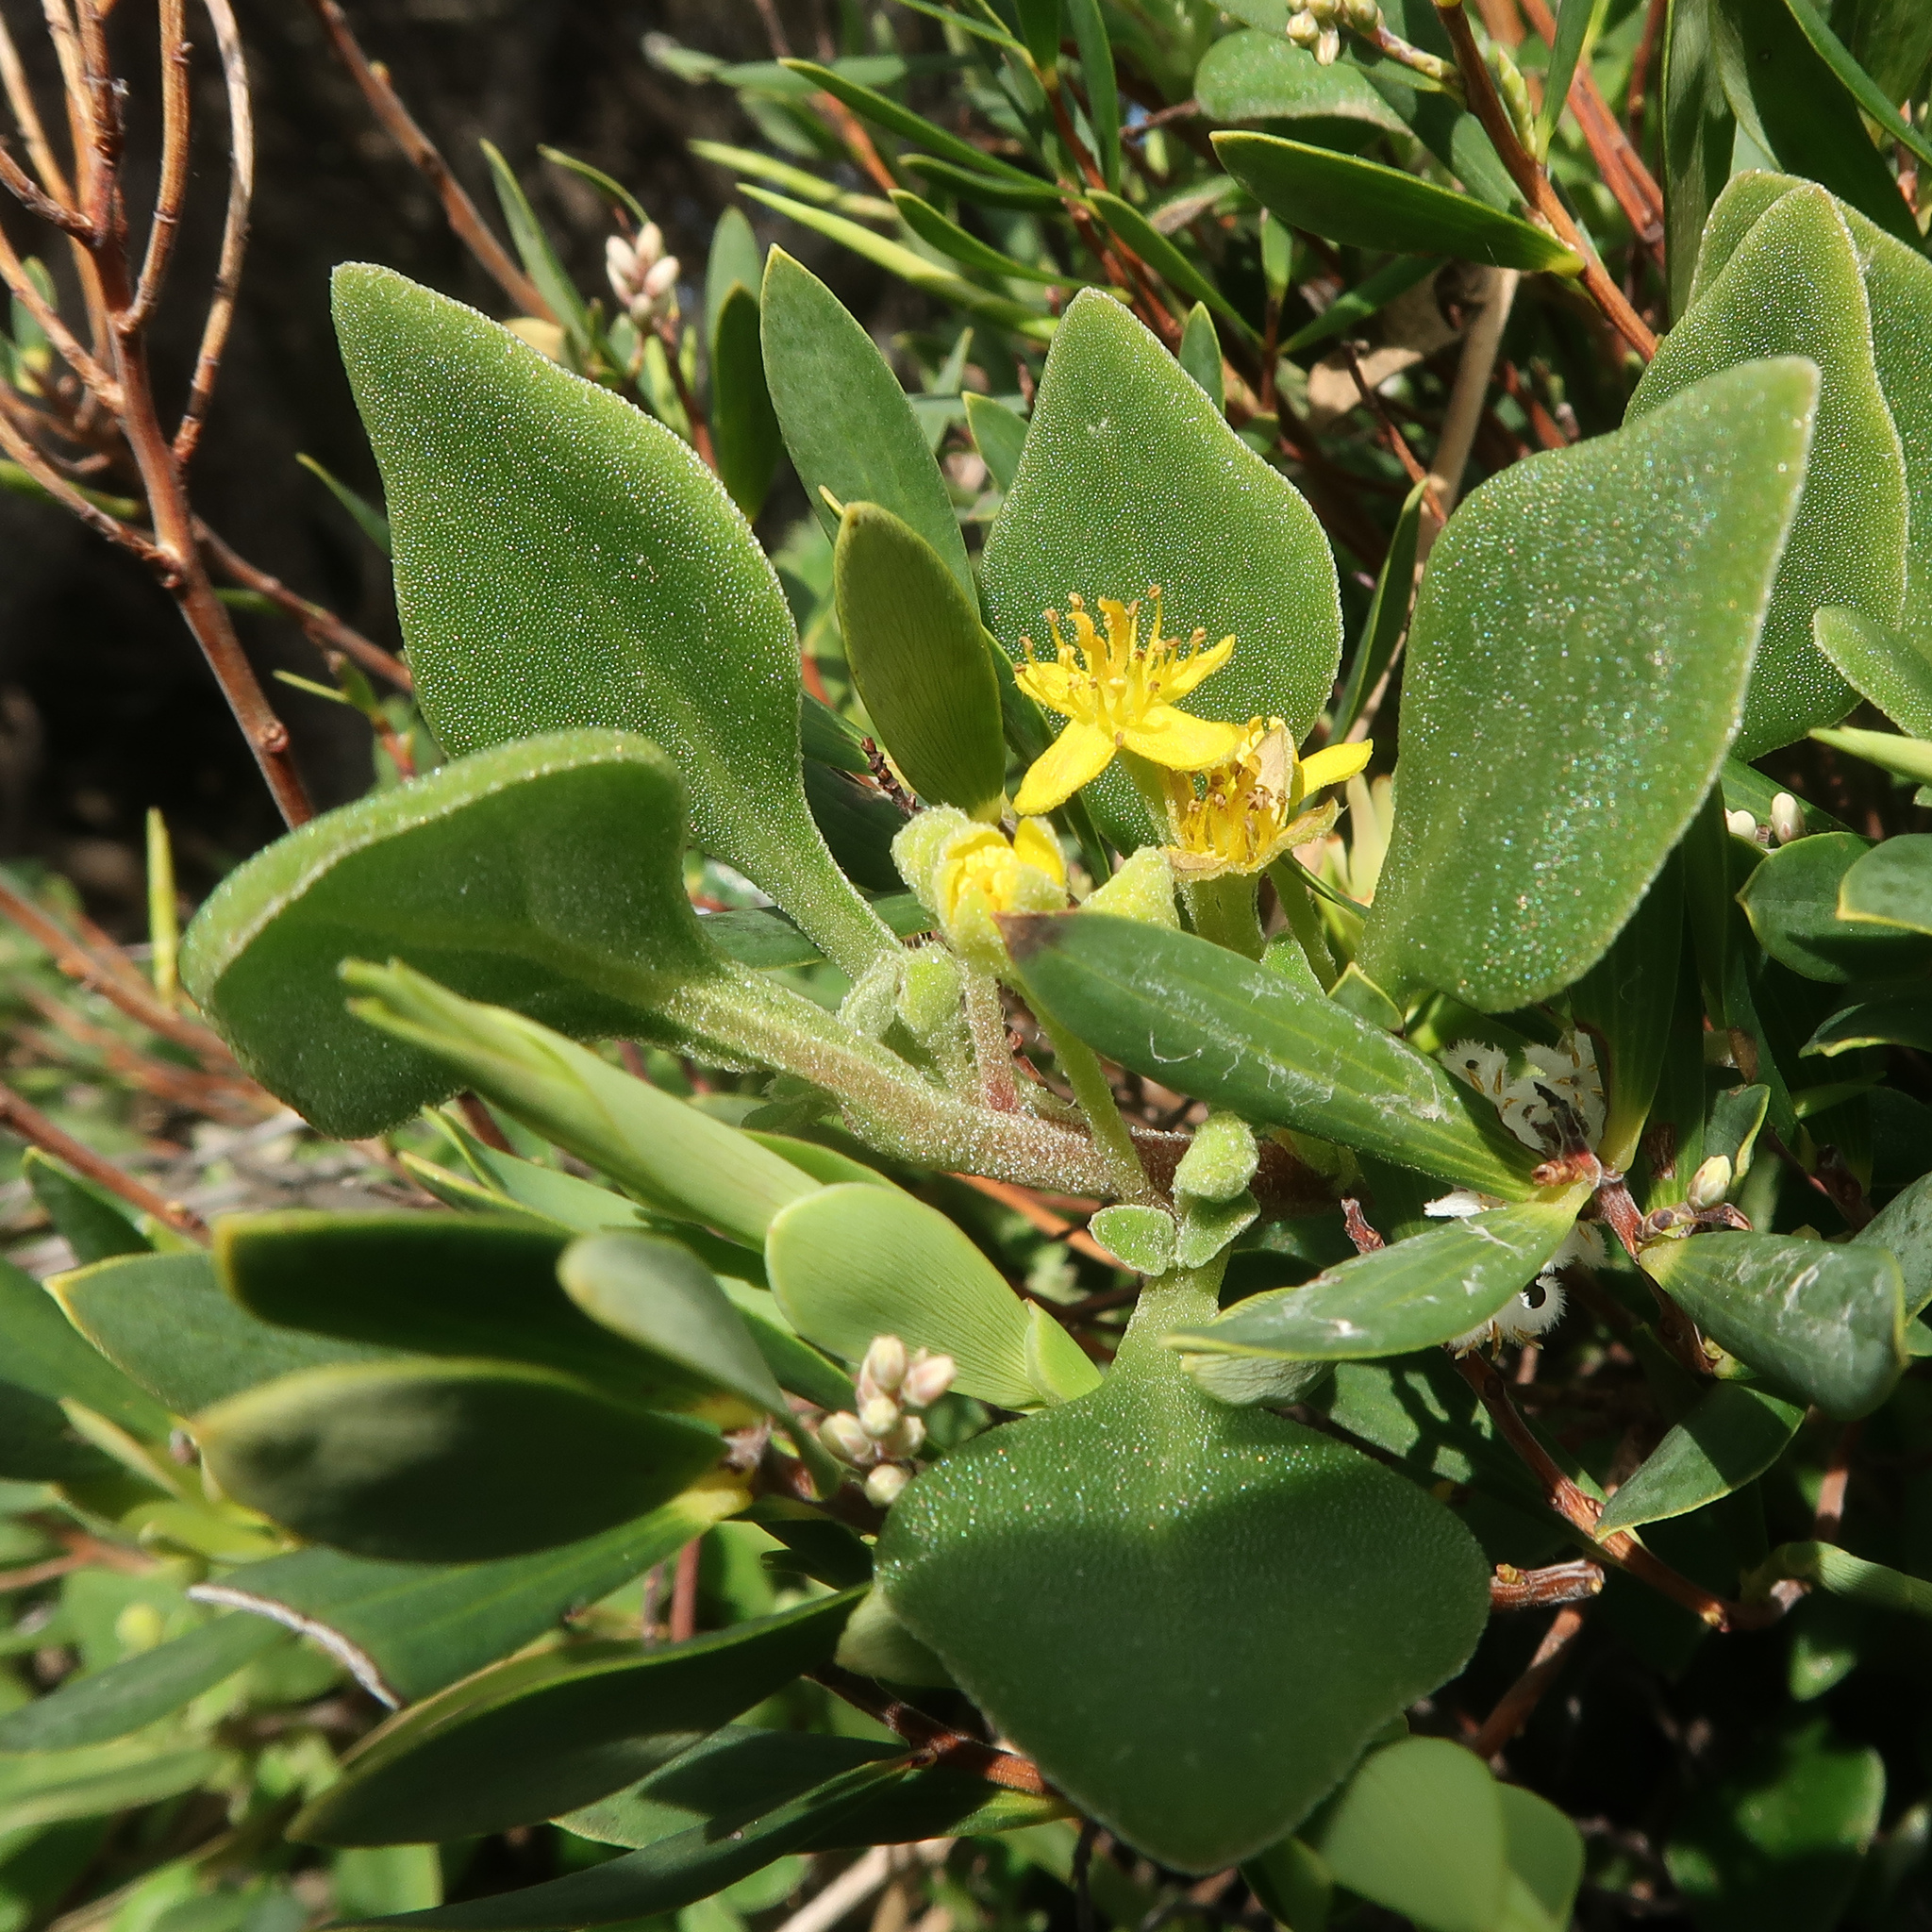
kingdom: Plantae
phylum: Tracheophyta
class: Magnoliopsida
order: Caryophyllales
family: Aizoaceae
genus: Tetragonia
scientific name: Tetragonia implexicoma
